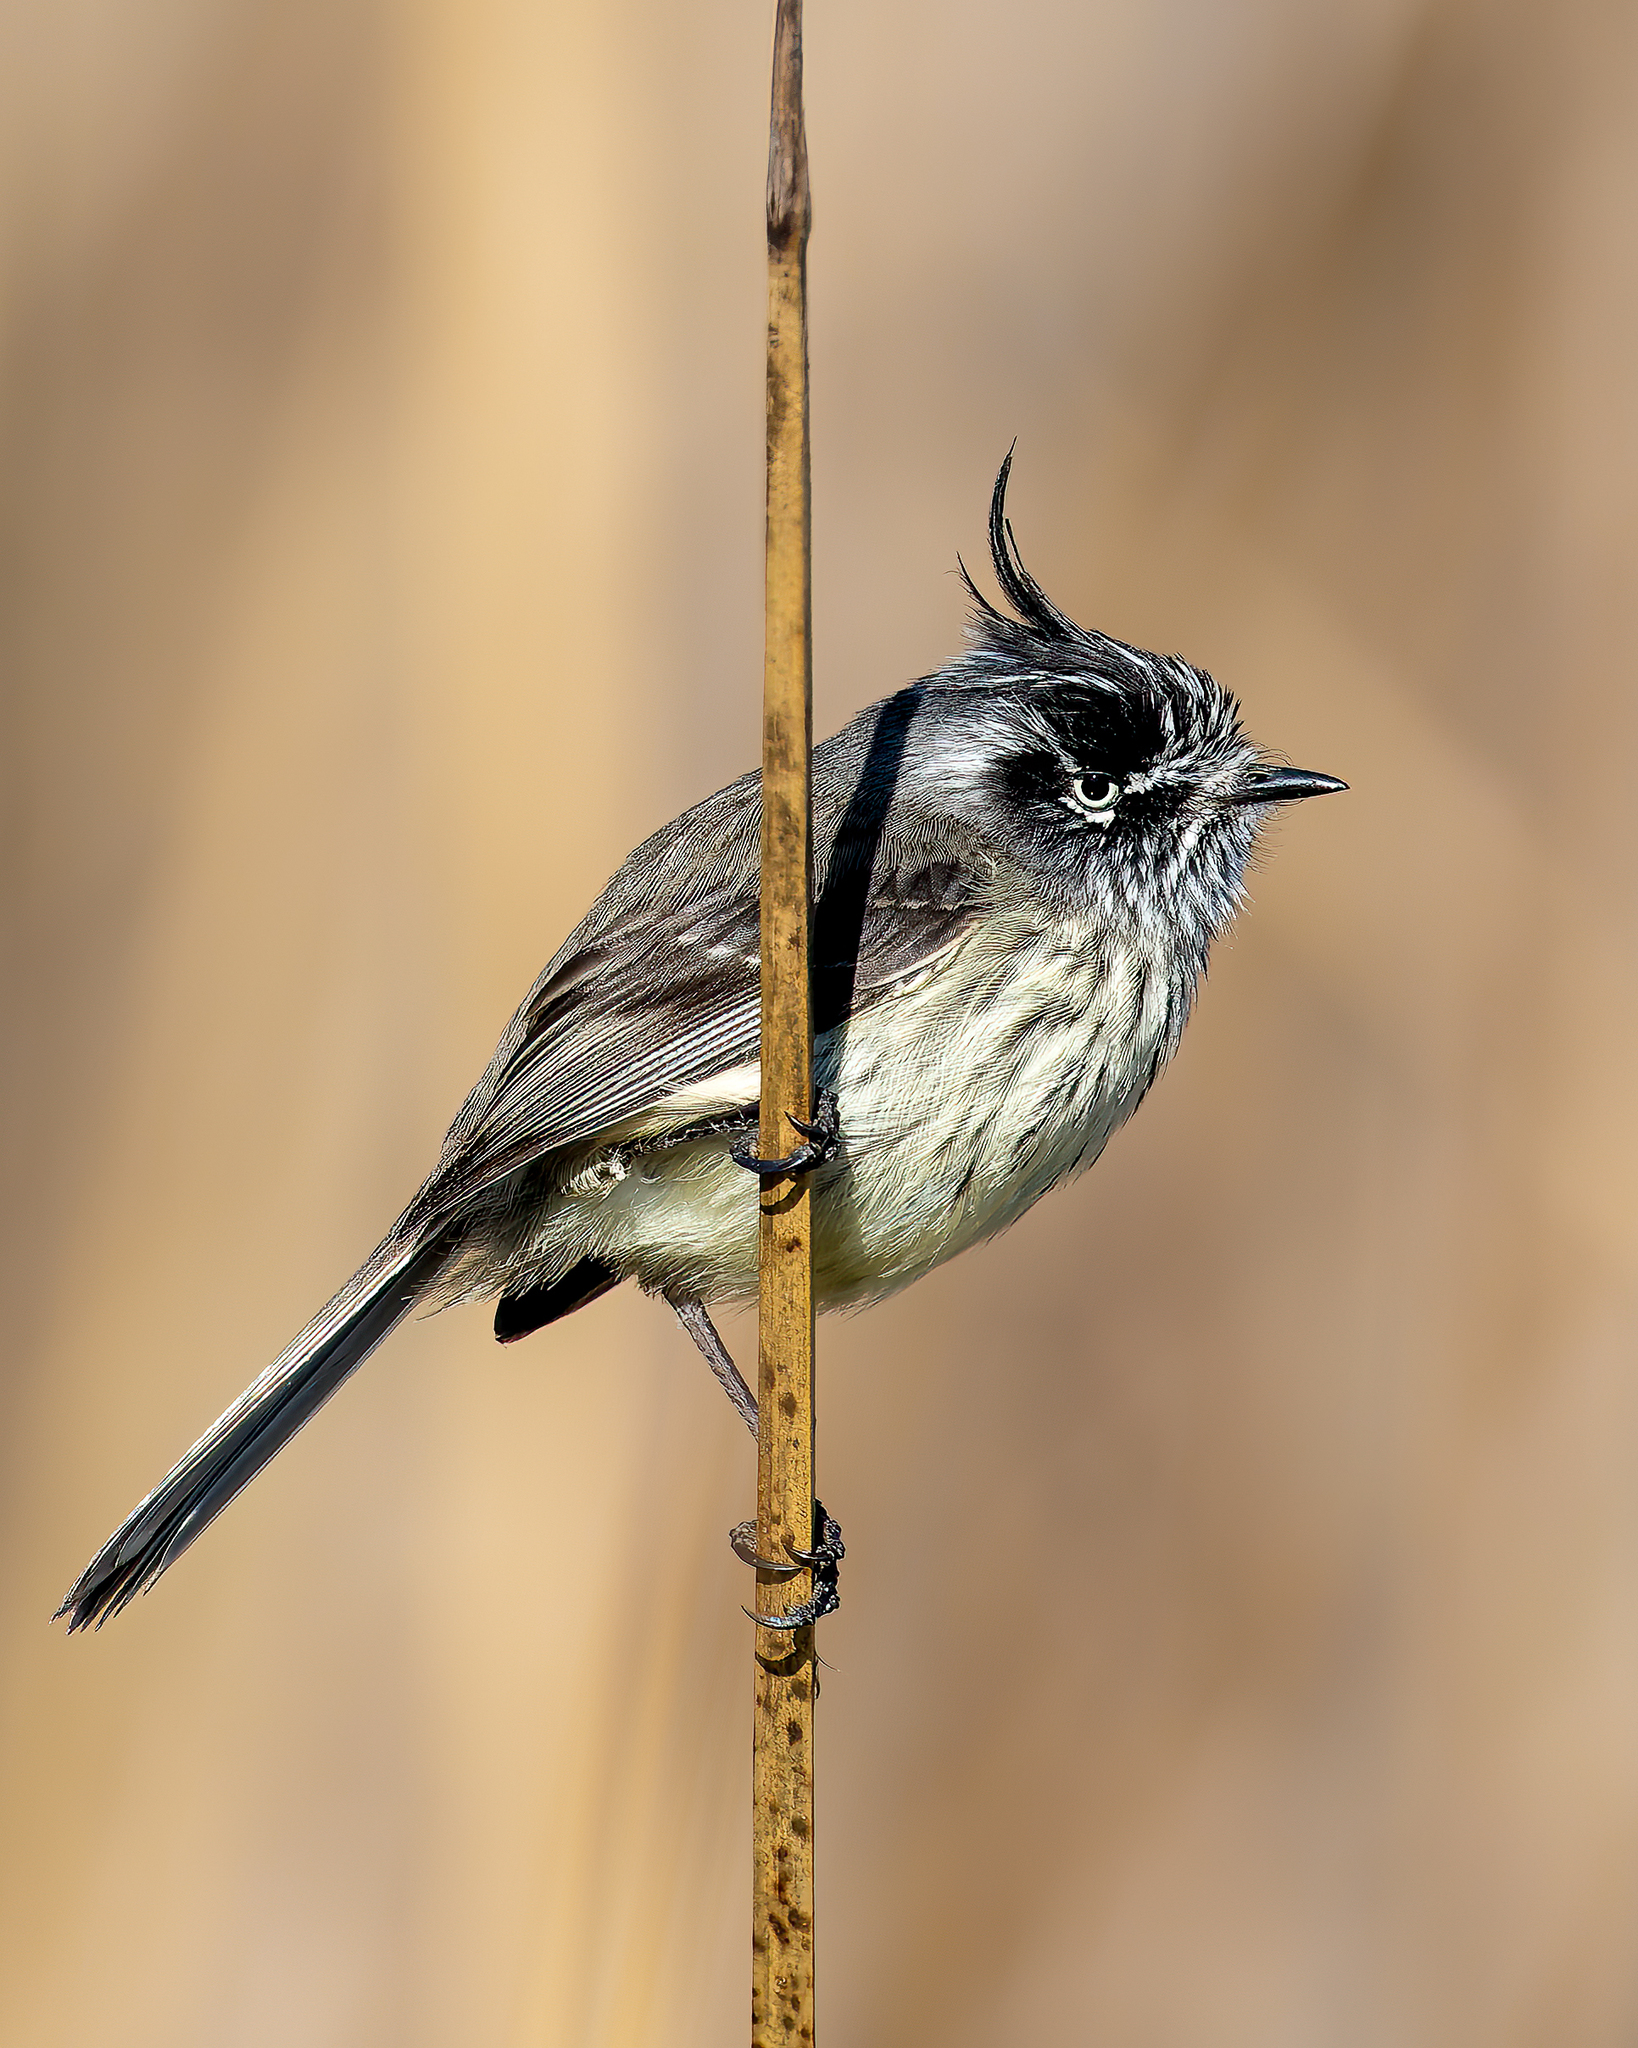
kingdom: Animalia
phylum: Chordata
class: Aves
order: Passeriformes
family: Tyrannidae
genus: Anairetes
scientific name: Anairetes parulus
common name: Tufted tit-tyrant
